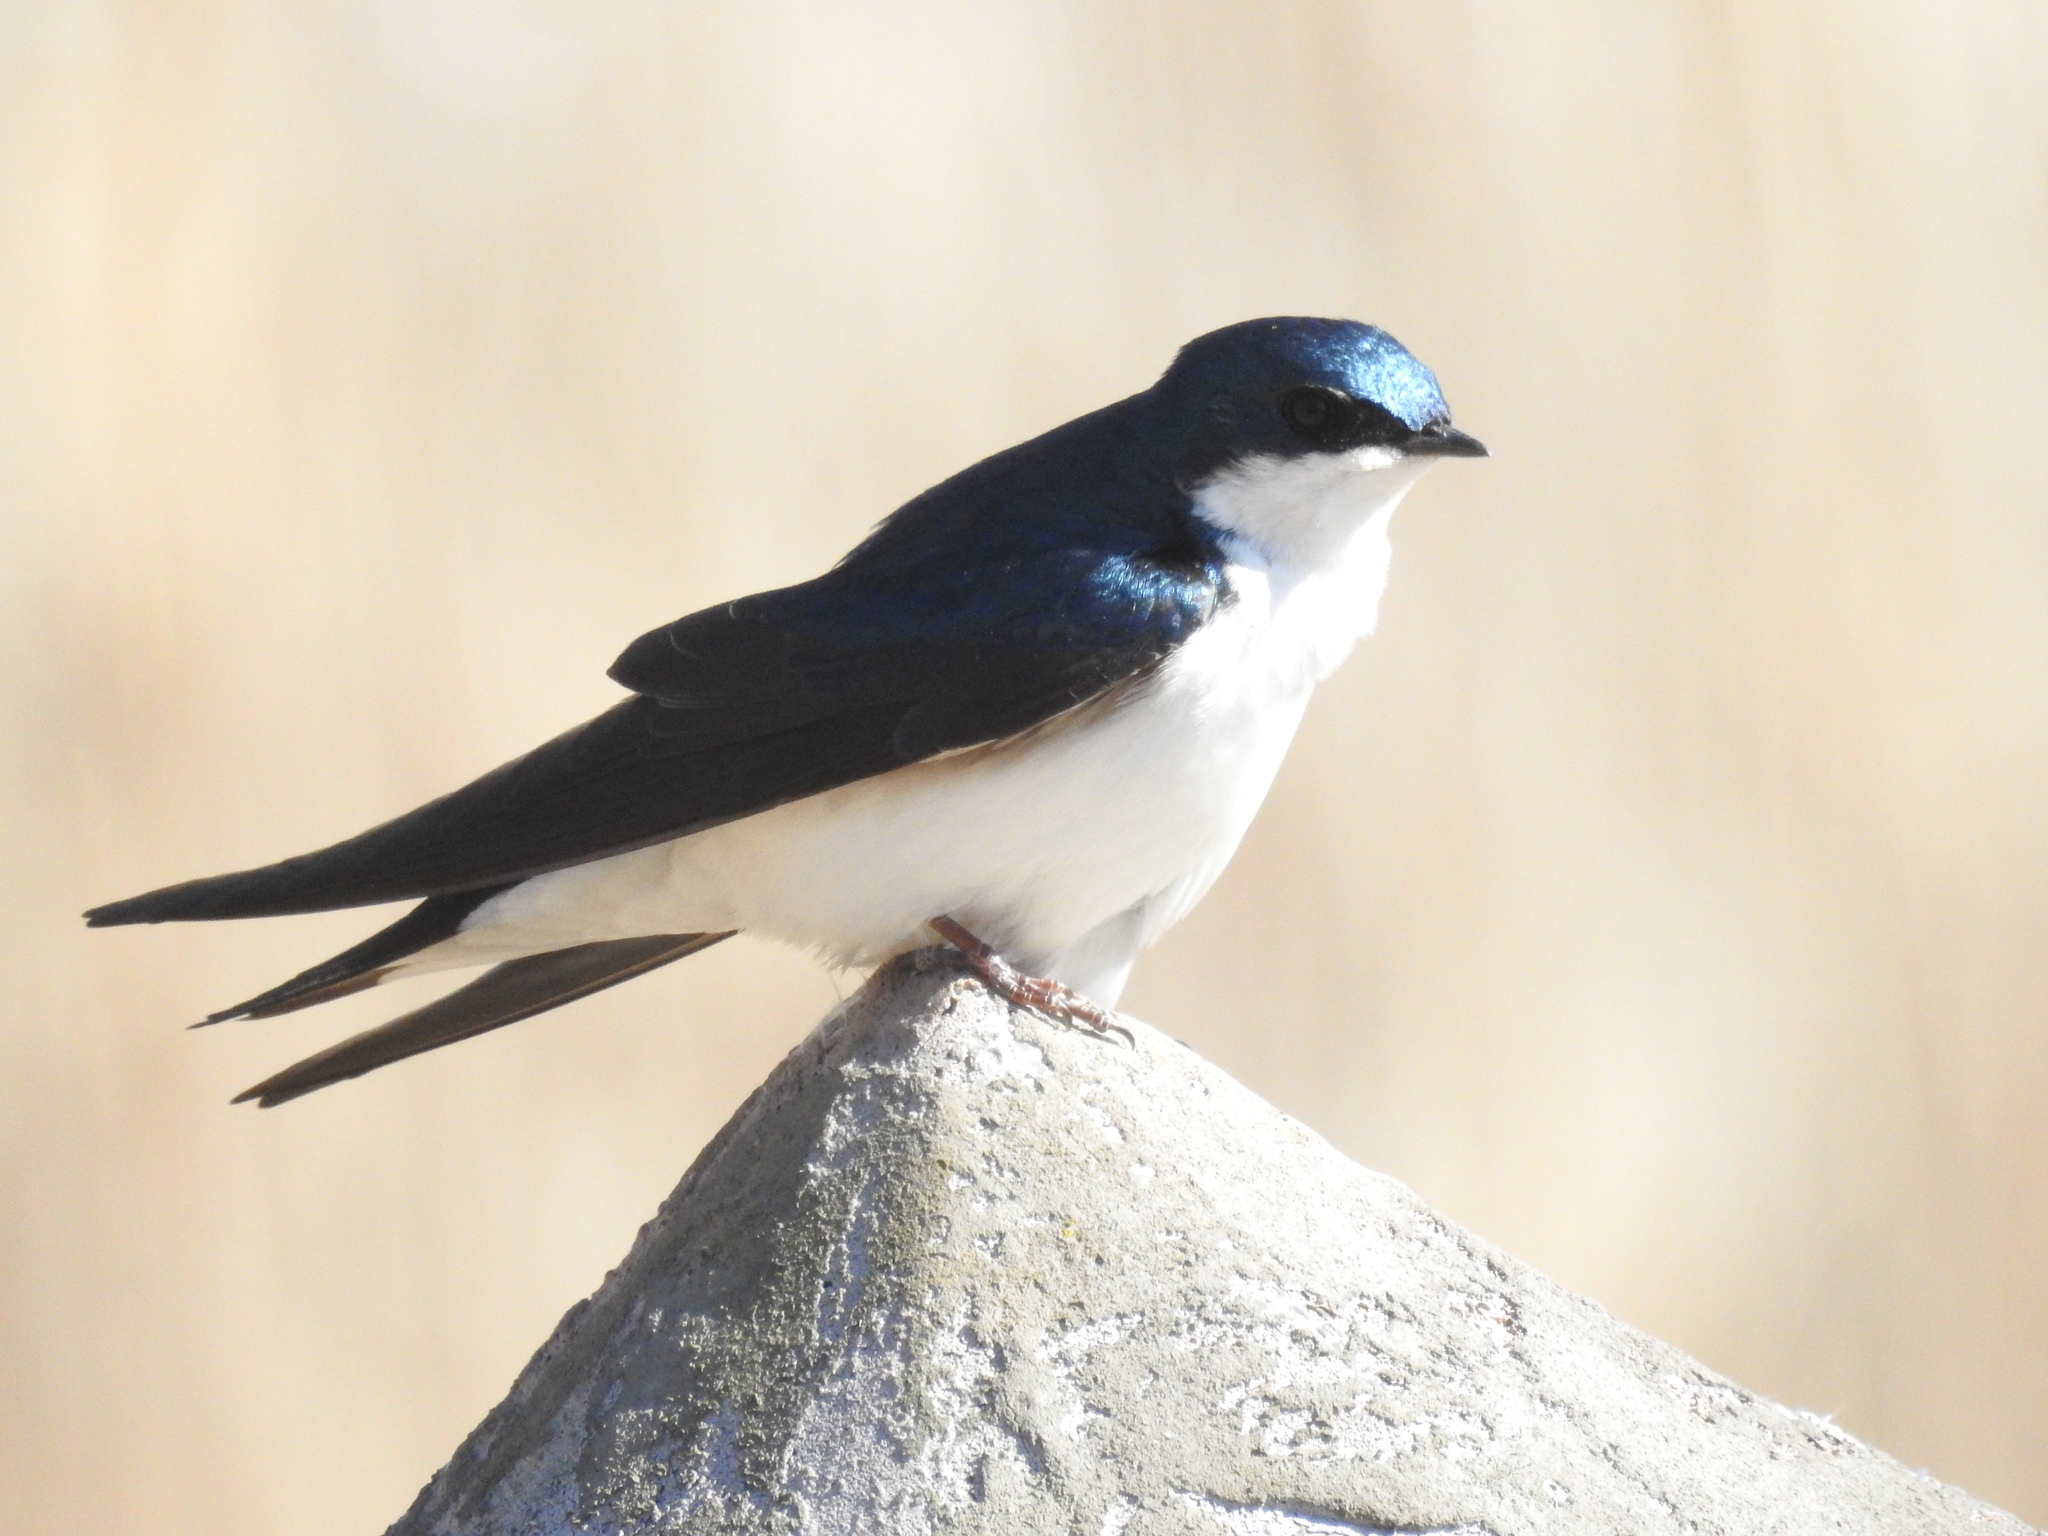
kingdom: Animalia
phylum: Chordata
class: Aves
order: Passeriformes
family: Hirundinidae
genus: Tachycineta
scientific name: Tachycineta bicolor
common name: Tree swallow
